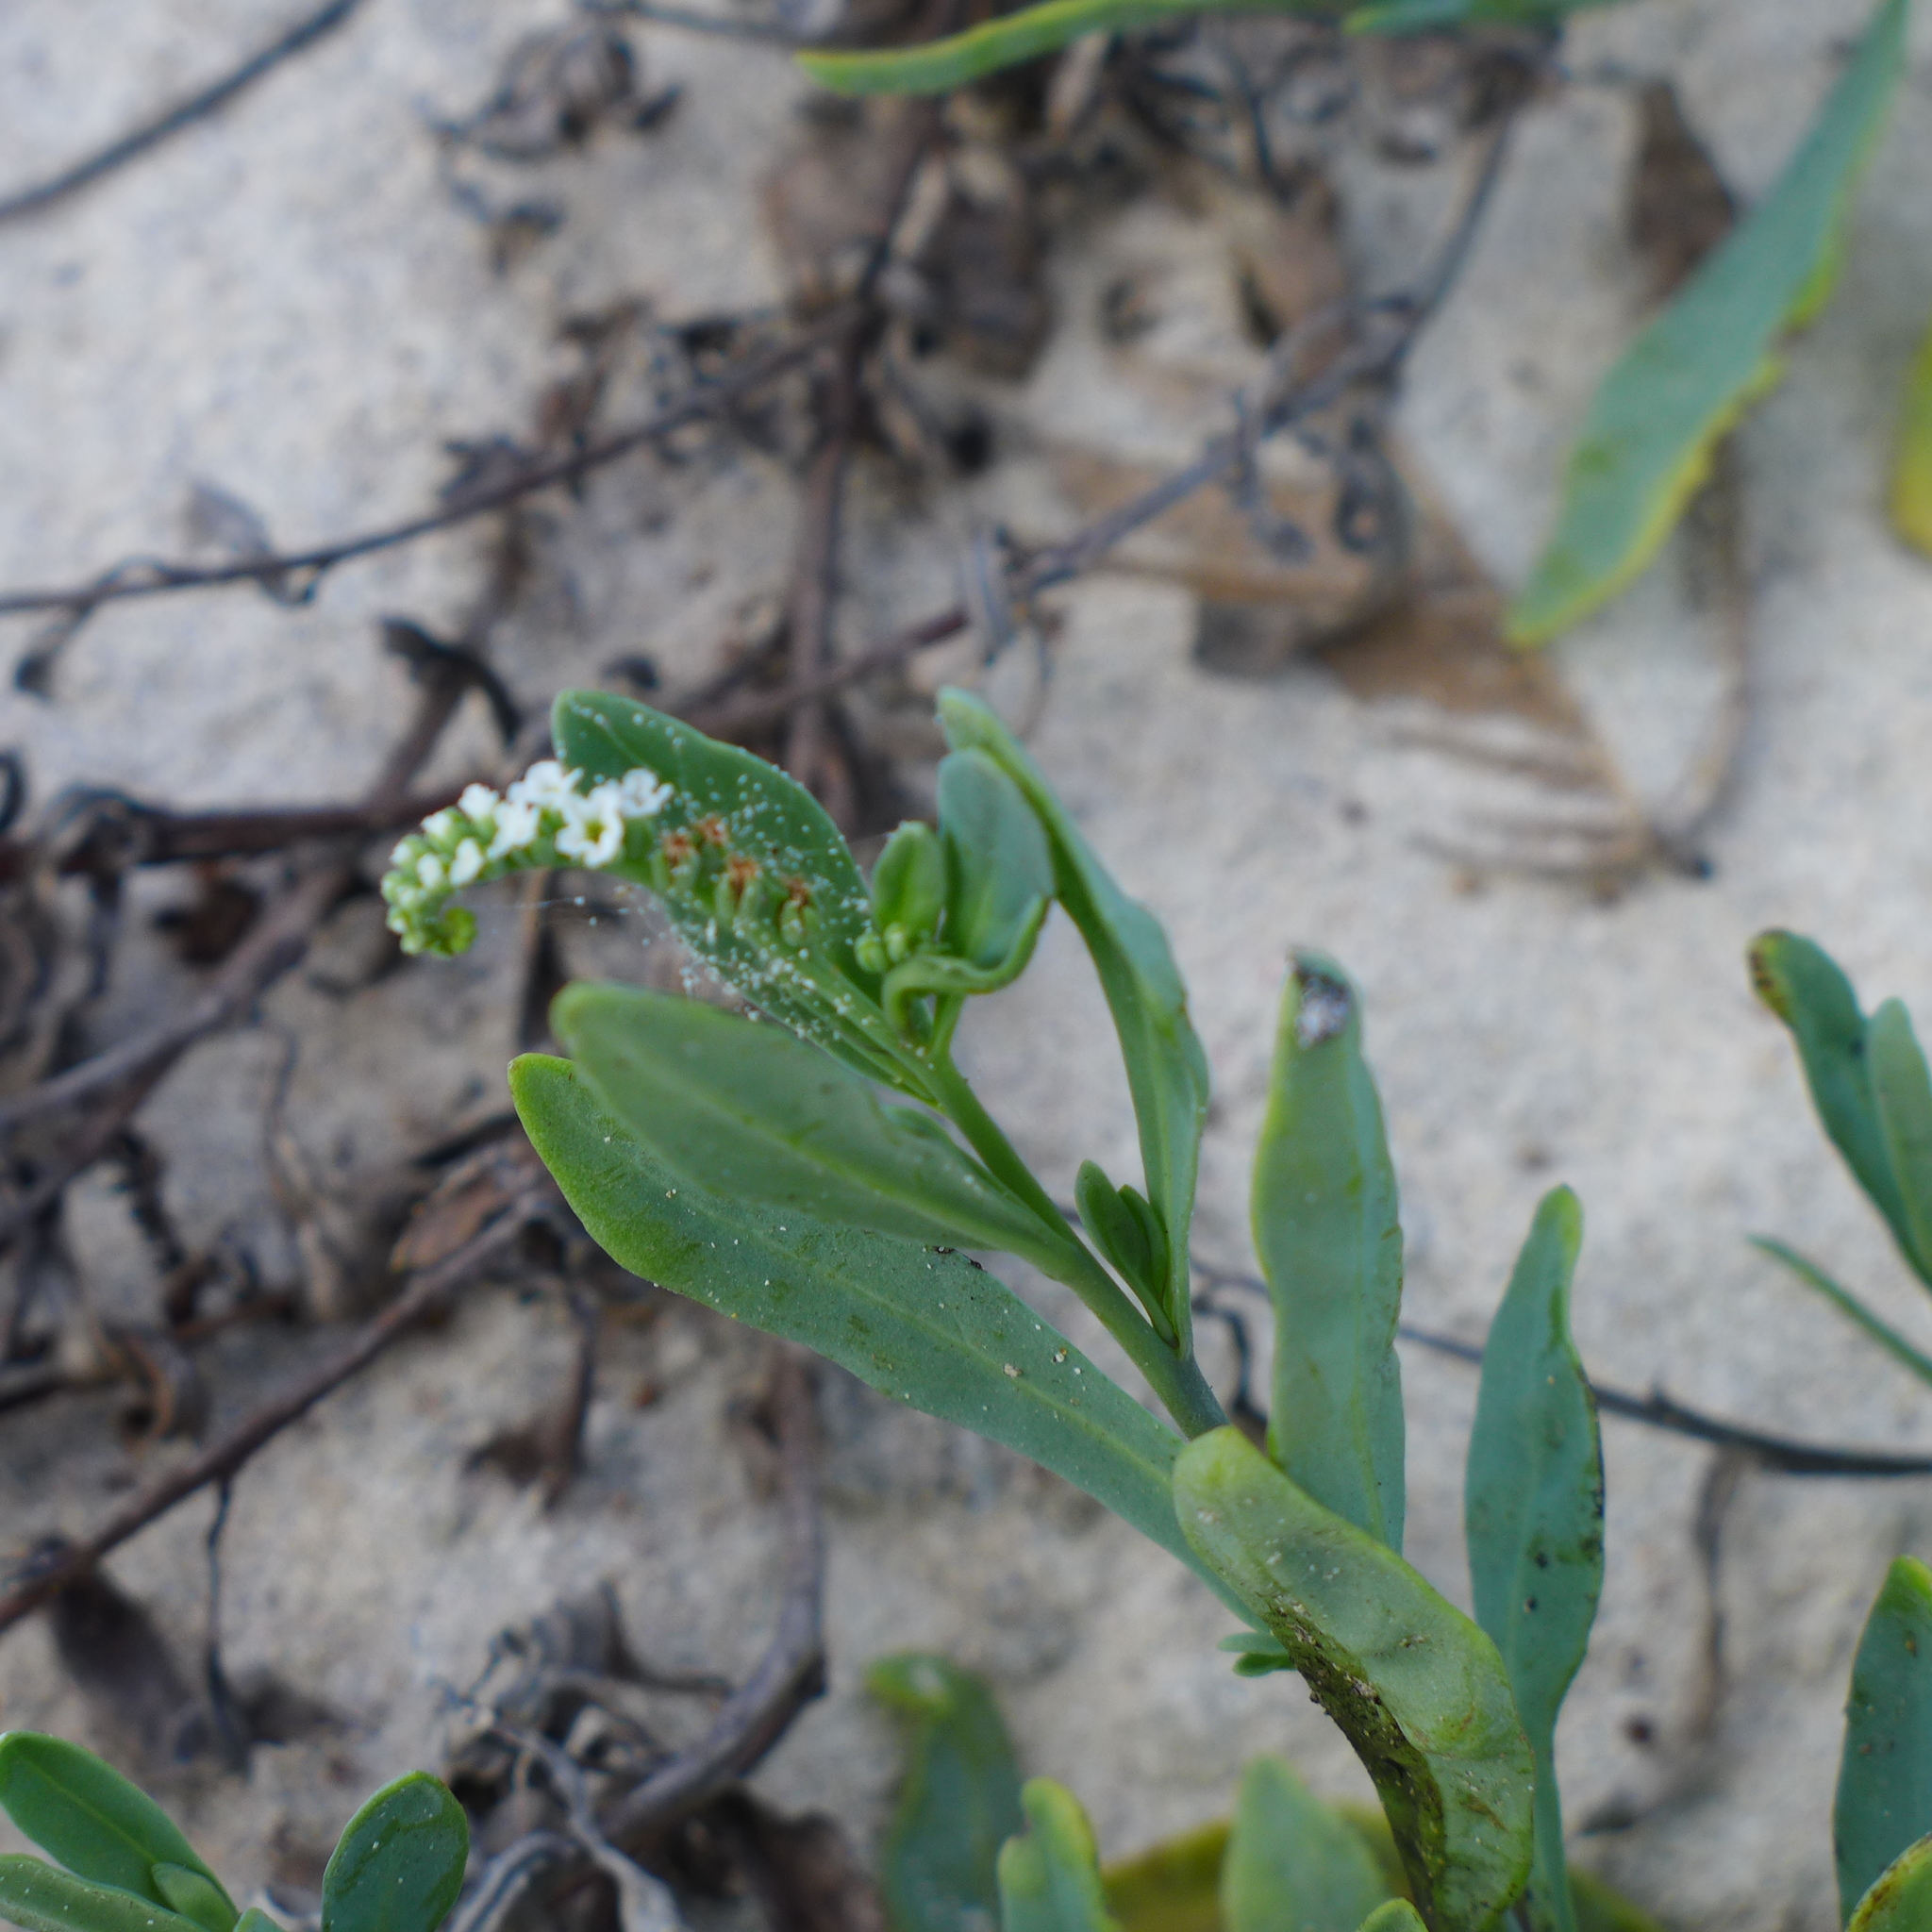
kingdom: Plantae
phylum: Tracheophyta
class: Magnoliopsida
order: Boraginales
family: Heliotropiaceae
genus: Heliotropium
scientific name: Heliotropium curassavicum
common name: Seaside heliotrope
